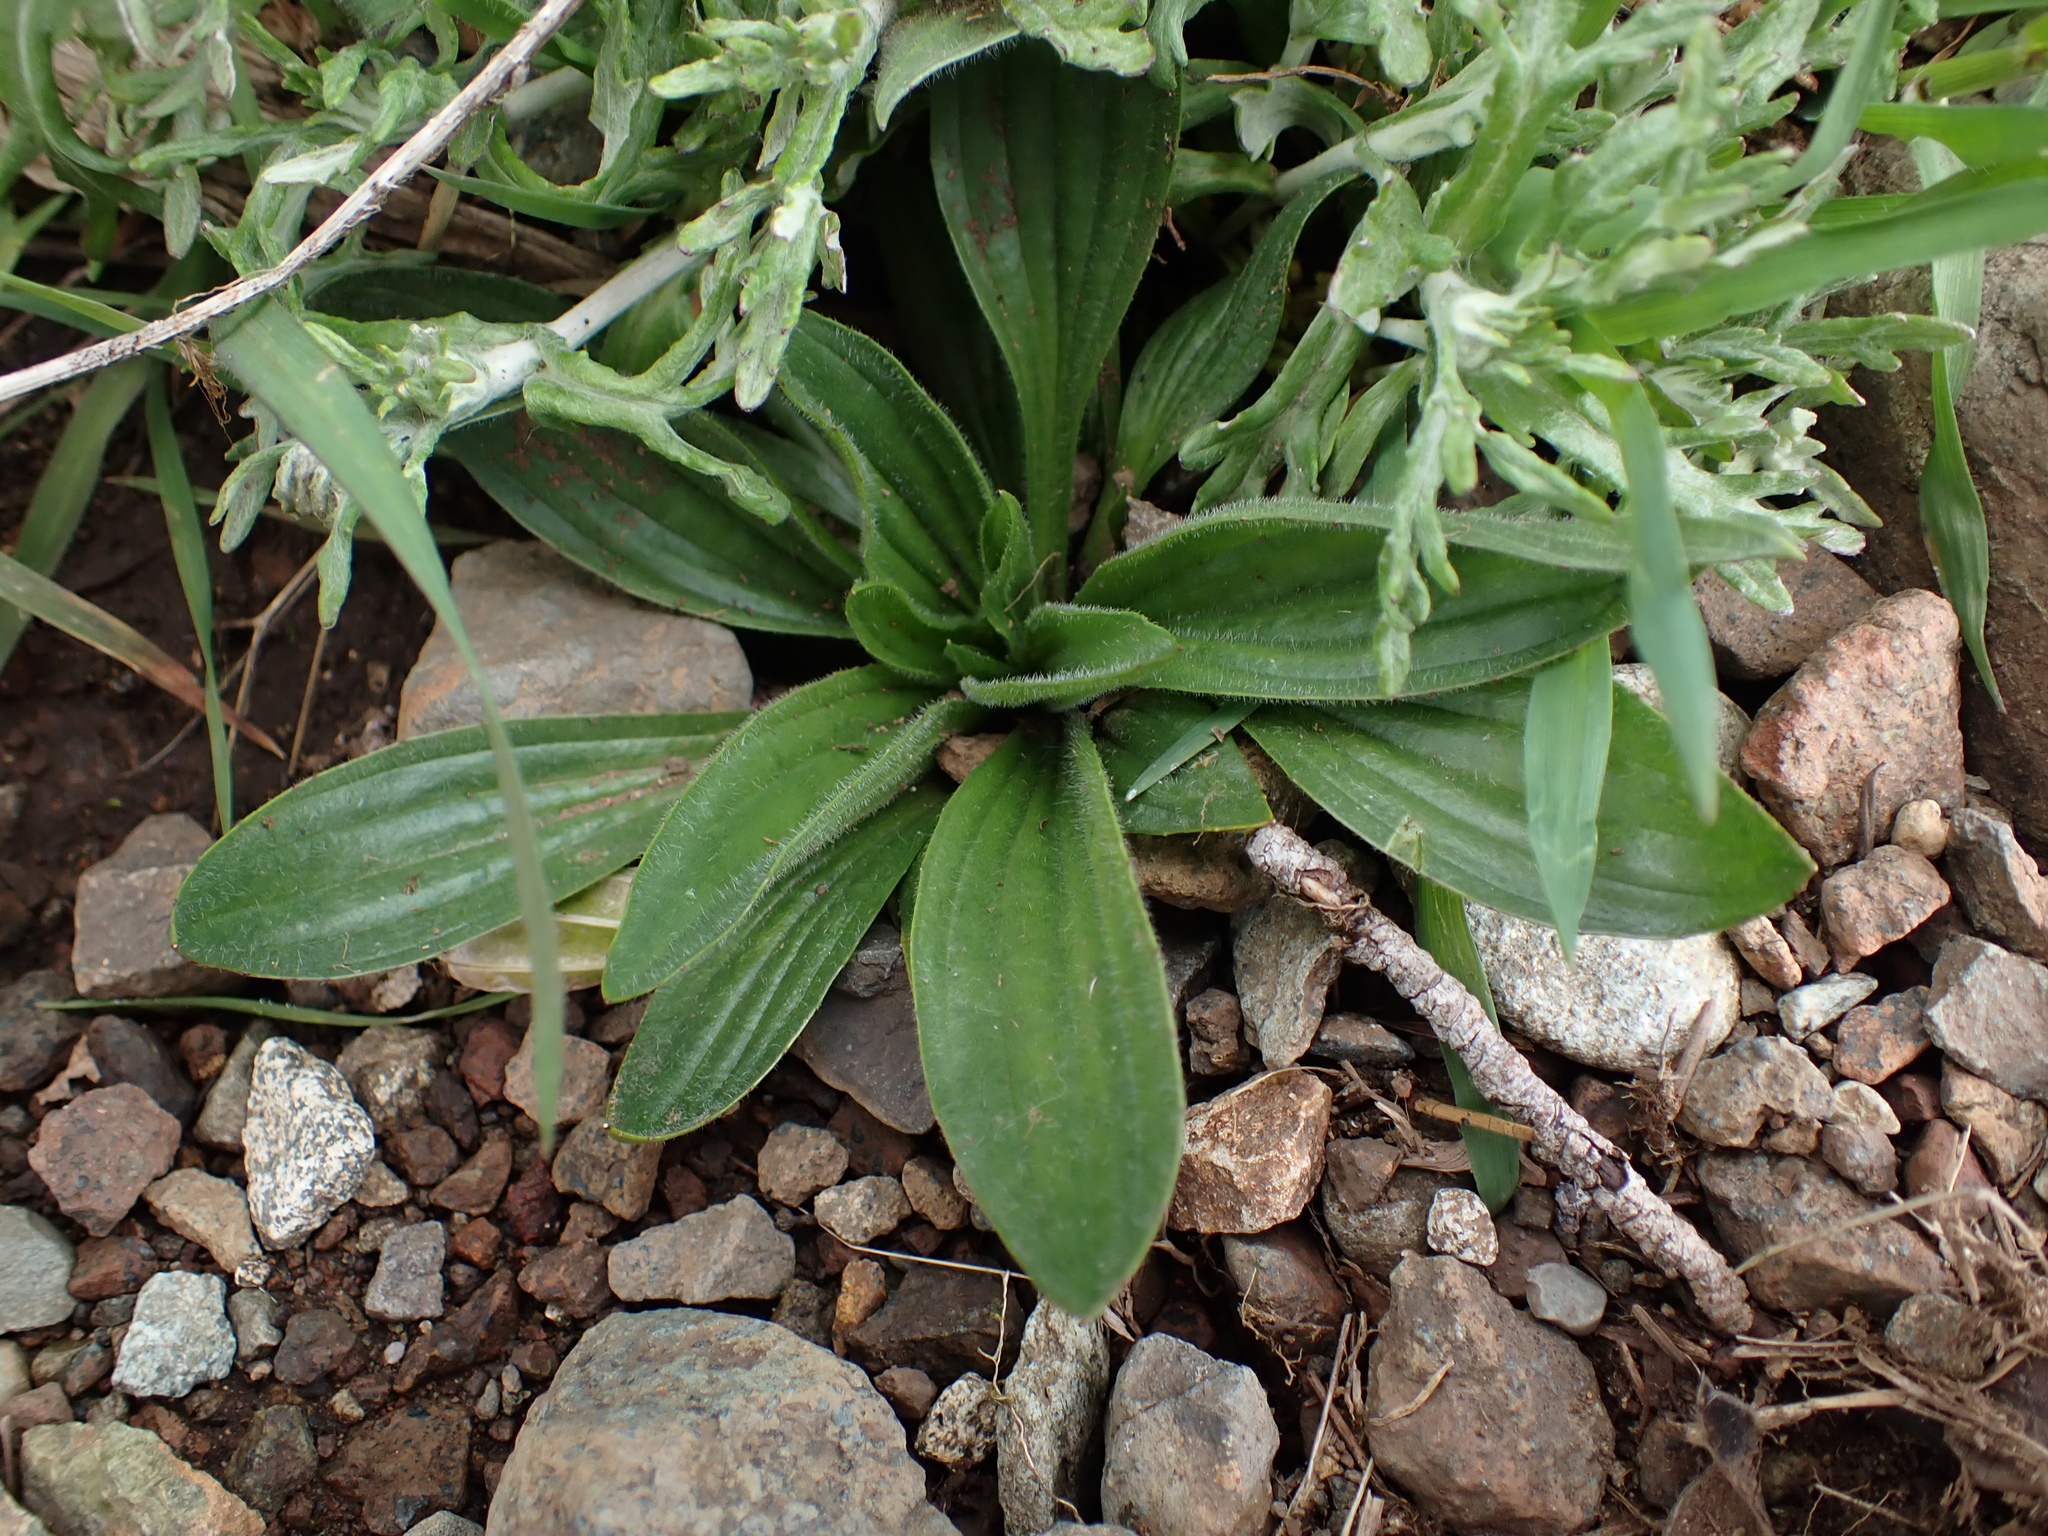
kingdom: Plantae
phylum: Tracheophyta
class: Magnoliopsida
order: Lamiales
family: Plantaginaceae
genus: Plantago
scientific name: Plantago lanceolata
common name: Ribwort plantain
